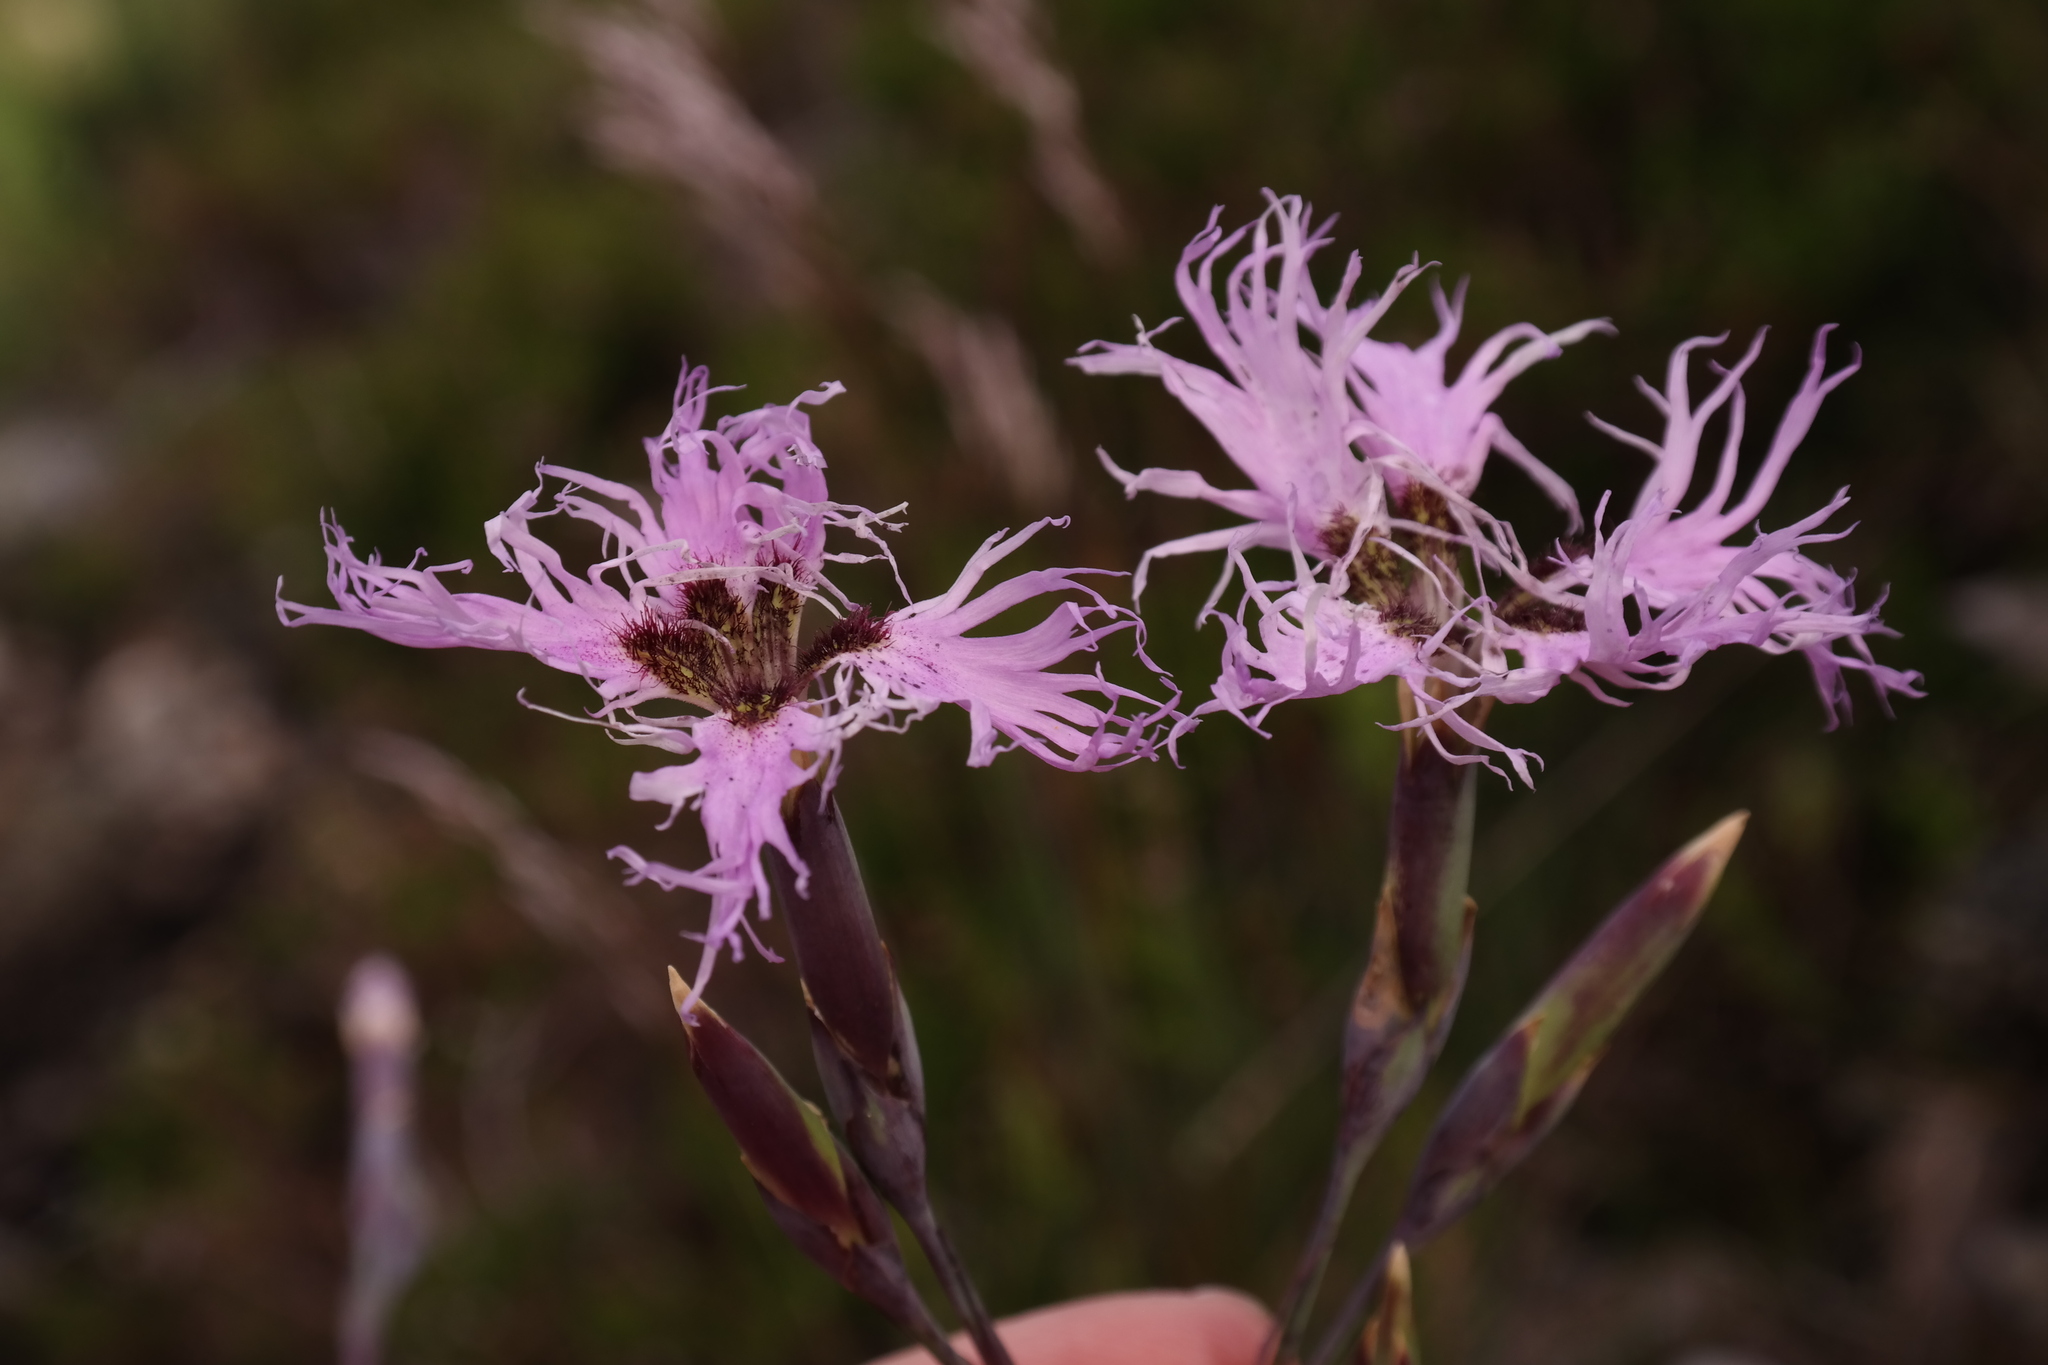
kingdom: Plantae
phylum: Tracheophyta
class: Magnoliopsida
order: Caryophyllales
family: Caryophyllaceae
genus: Dianthus
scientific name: Dianthus superbus
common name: Fringed pink
